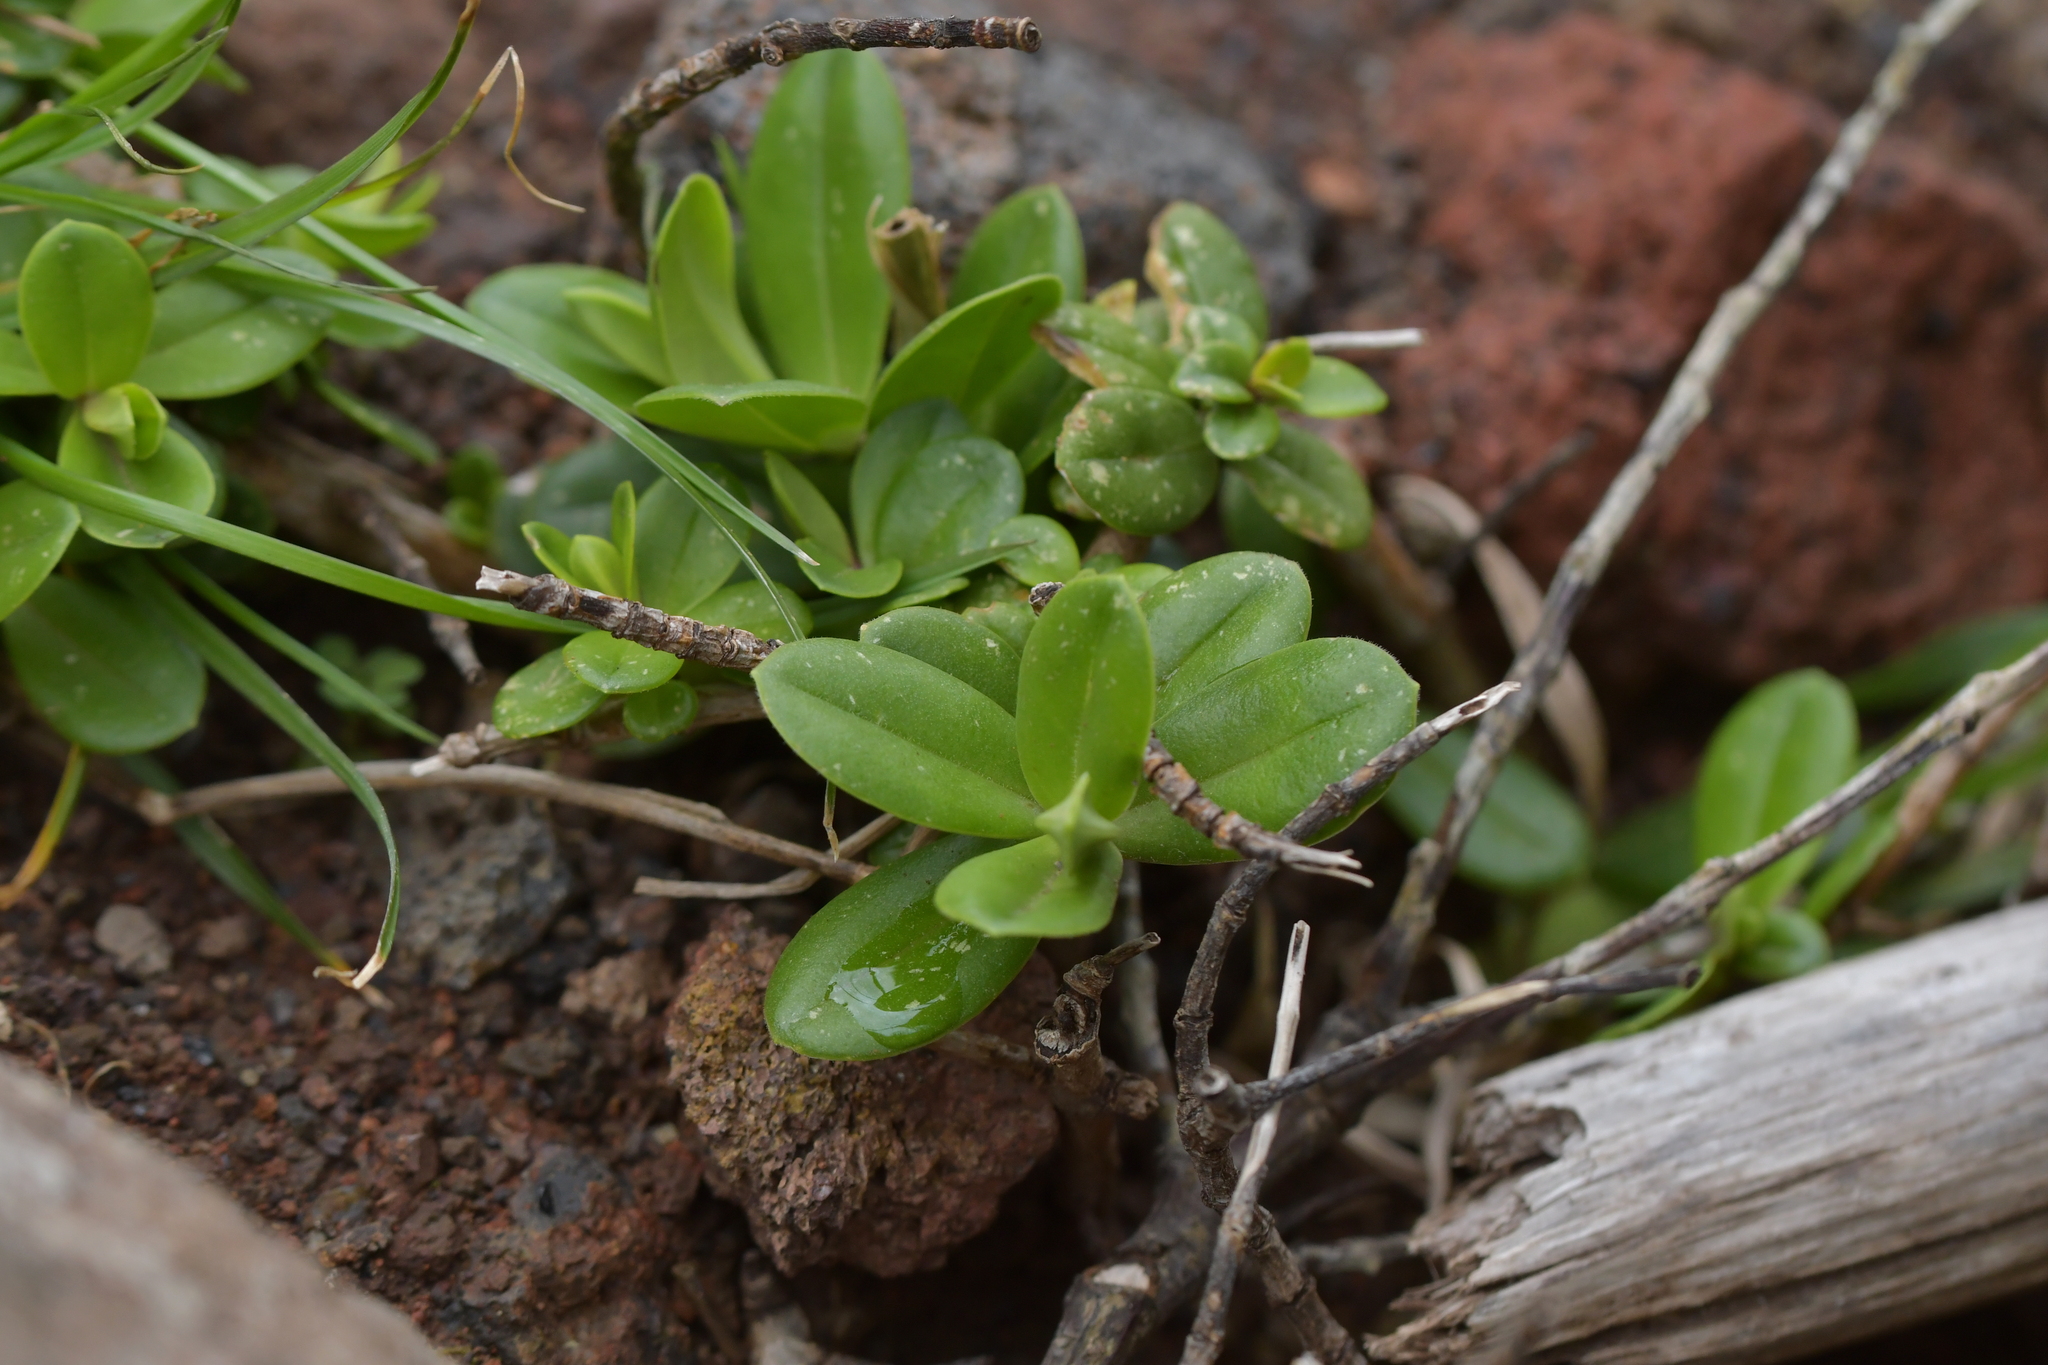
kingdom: Plantae
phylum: Tracheophyta
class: Magnoliopsida
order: Lamiales
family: Plantaginaceae
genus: Veronica
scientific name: Veronica chathamica
